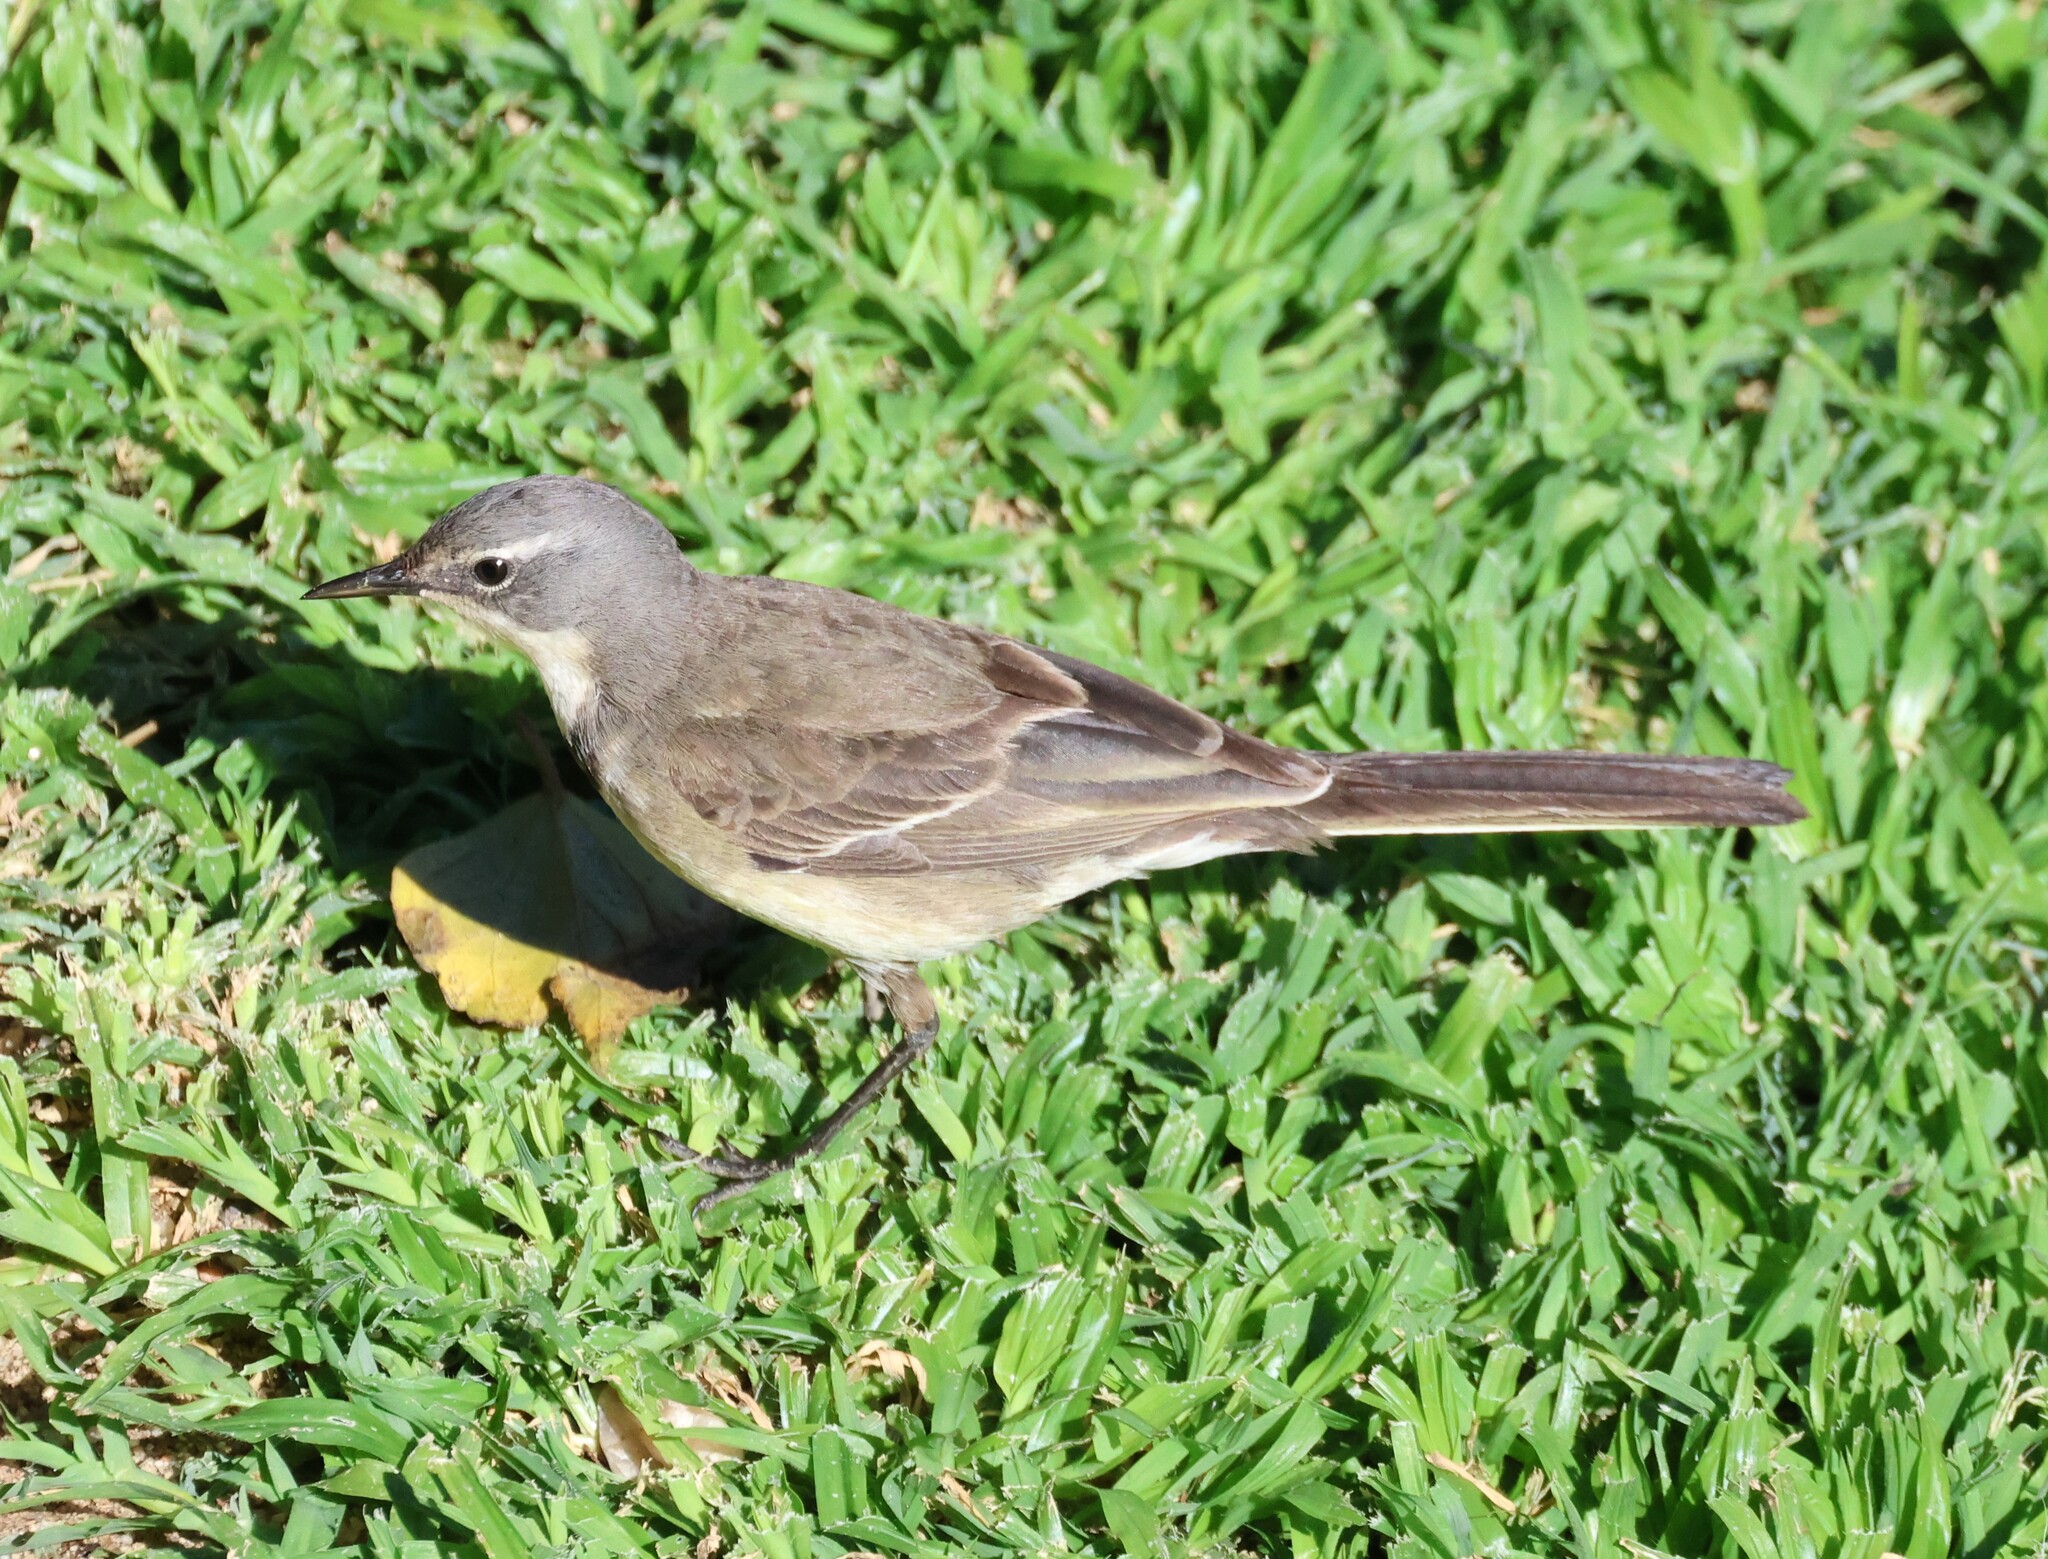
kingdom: Animalia
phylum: Chordata
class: Aves
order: Passeriformes
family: Motacillidae
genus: Motacilla
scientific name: Motacilla capensis
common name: Cape wagtail
